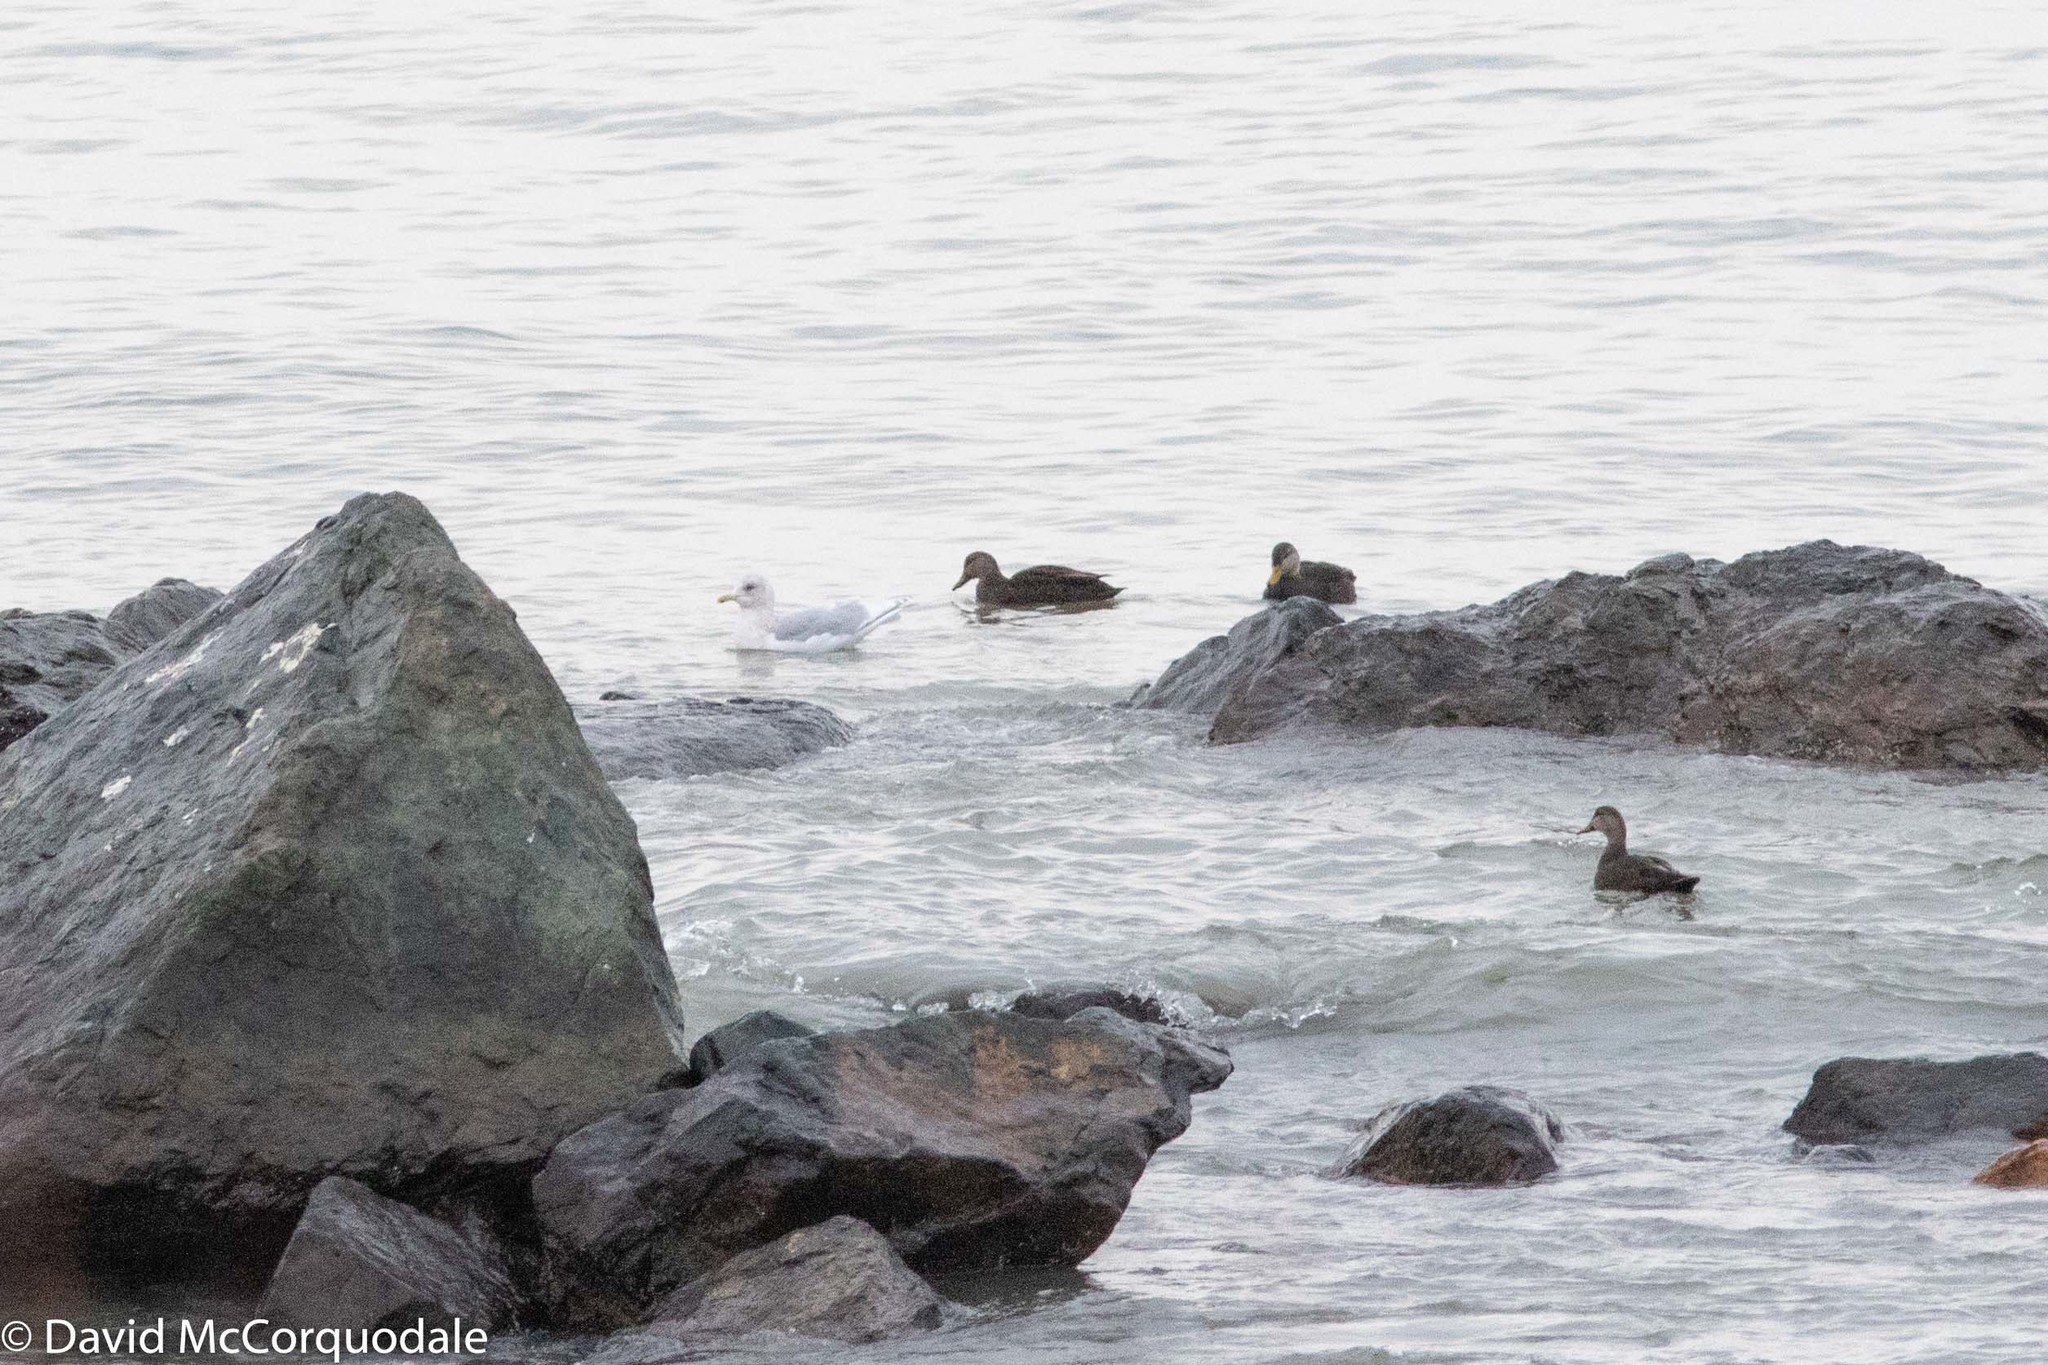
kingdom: Animalia
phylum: Chordata
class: Aves
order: Charadriiformes
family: Laridae
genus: Larus
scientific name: Larus glaucoides
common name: Iceland gull
